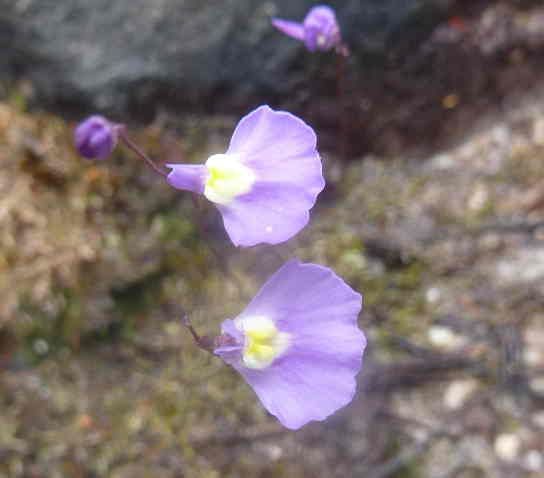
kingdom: Plantae
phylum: Tracheophyta
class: Magnoliopsida
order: Lamiales
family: Lentibulariaceae
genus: Utricularia
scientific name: Utricularia bisquamata
